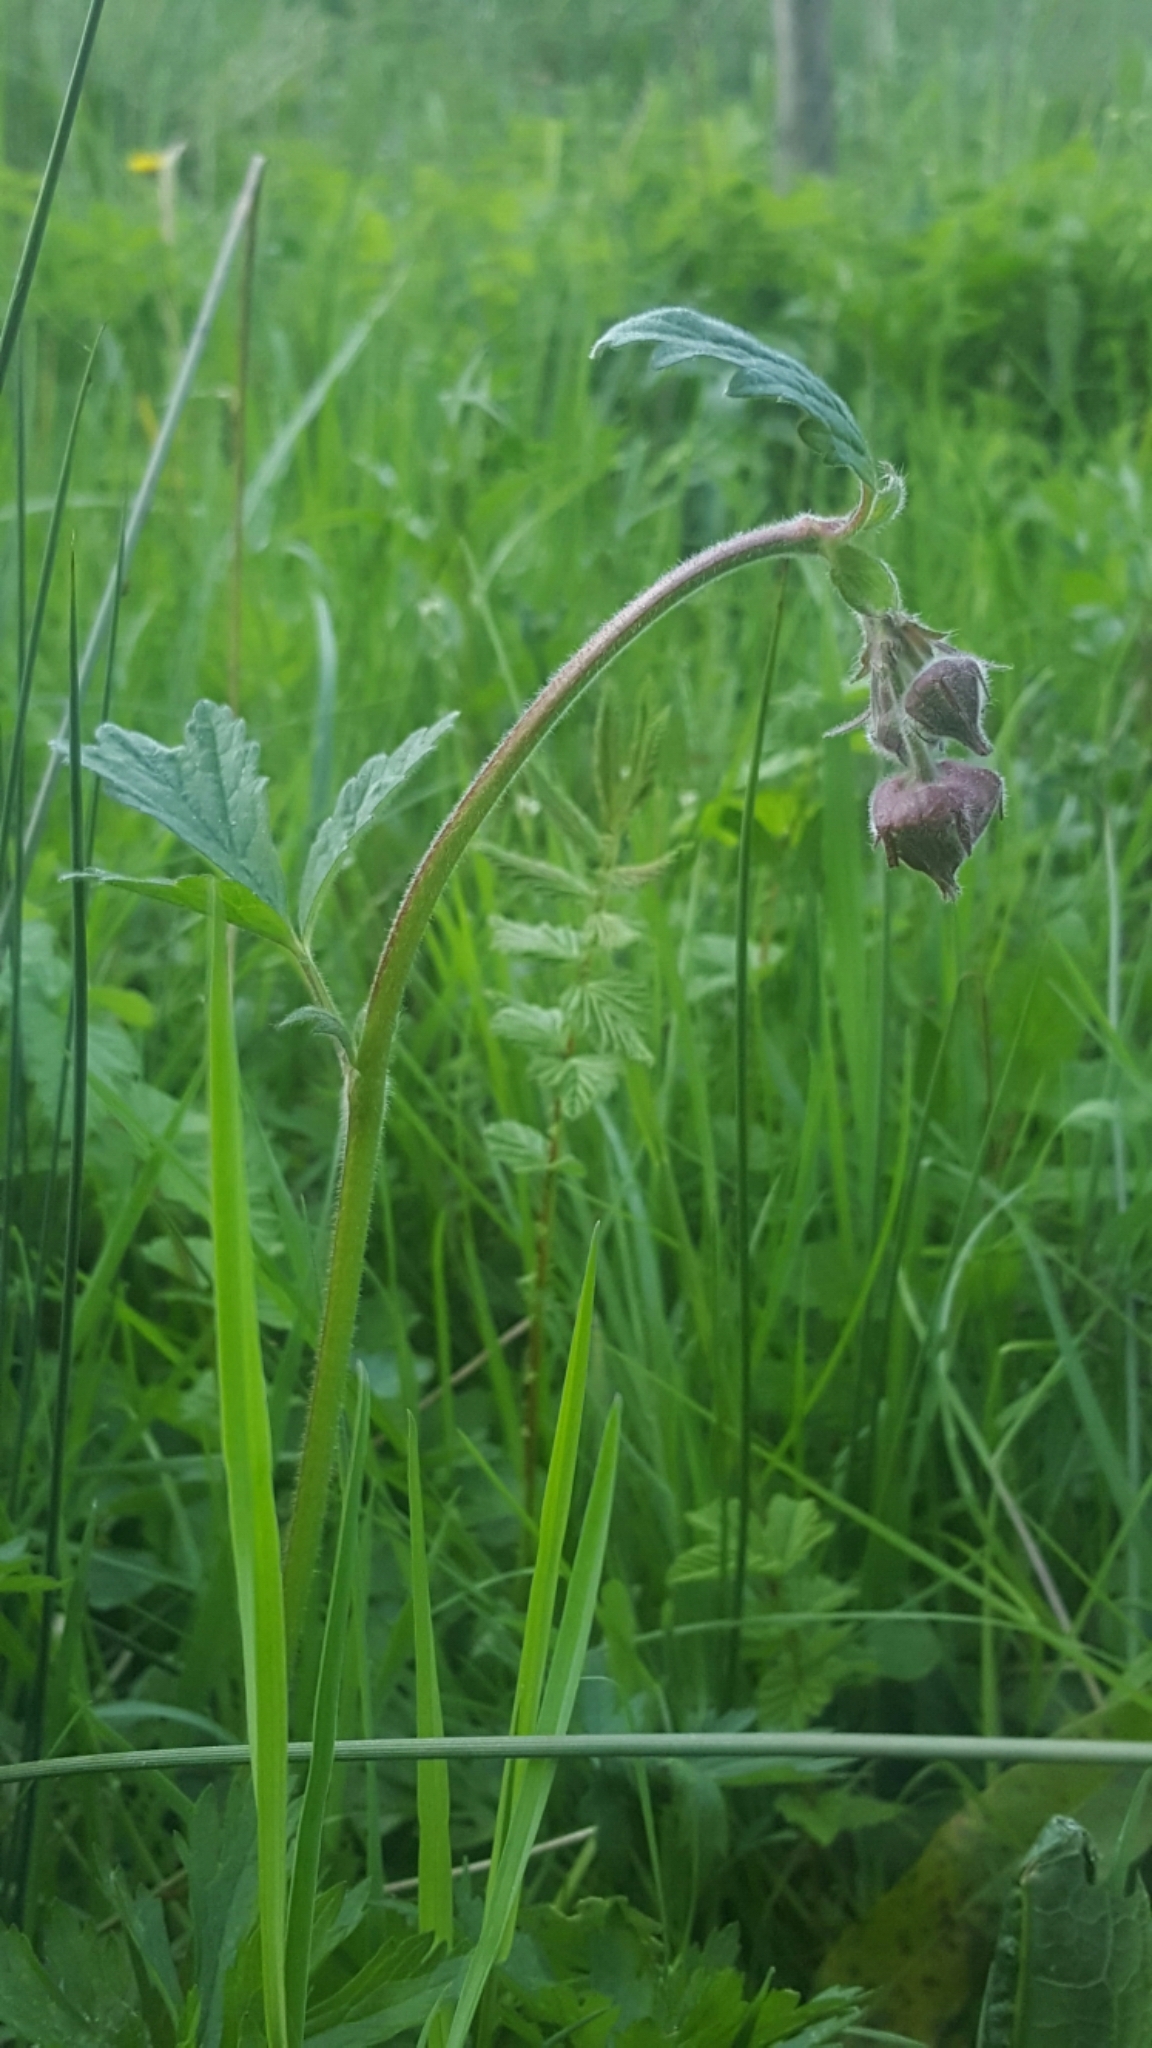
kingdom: Plantae
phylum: Tracheophyta
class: Magnoliopsida
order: Rosales
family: Rosaceae
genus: Geum
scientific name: Geum rivale
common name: Water avens
